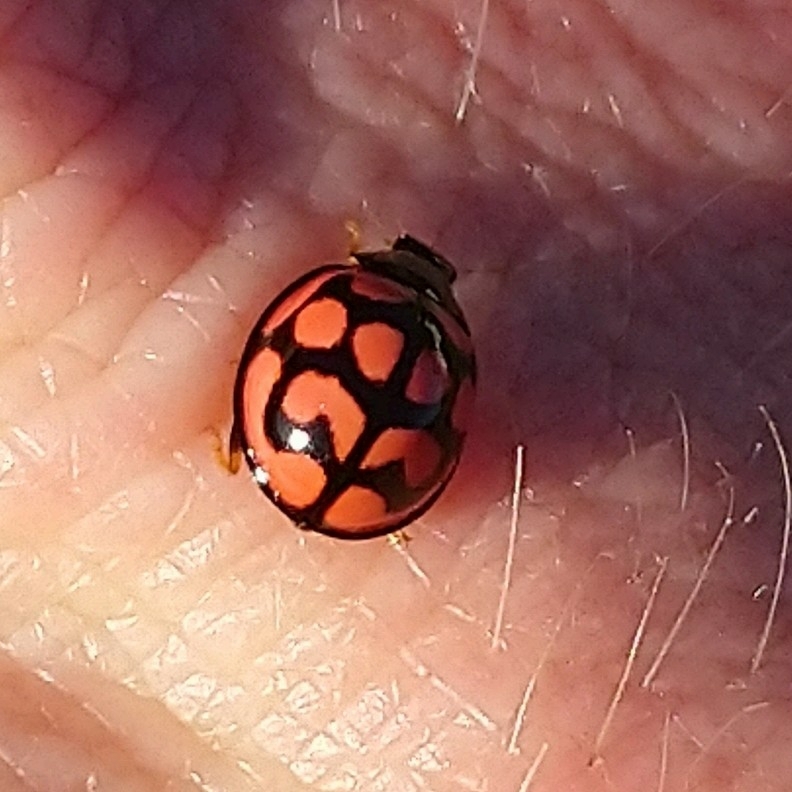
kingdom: Animalia
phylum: Arthropoda
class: Insecta
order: Coleoptera
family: Coccinellidae
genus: Cheilomenes
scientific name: Cheilomenes lunata
